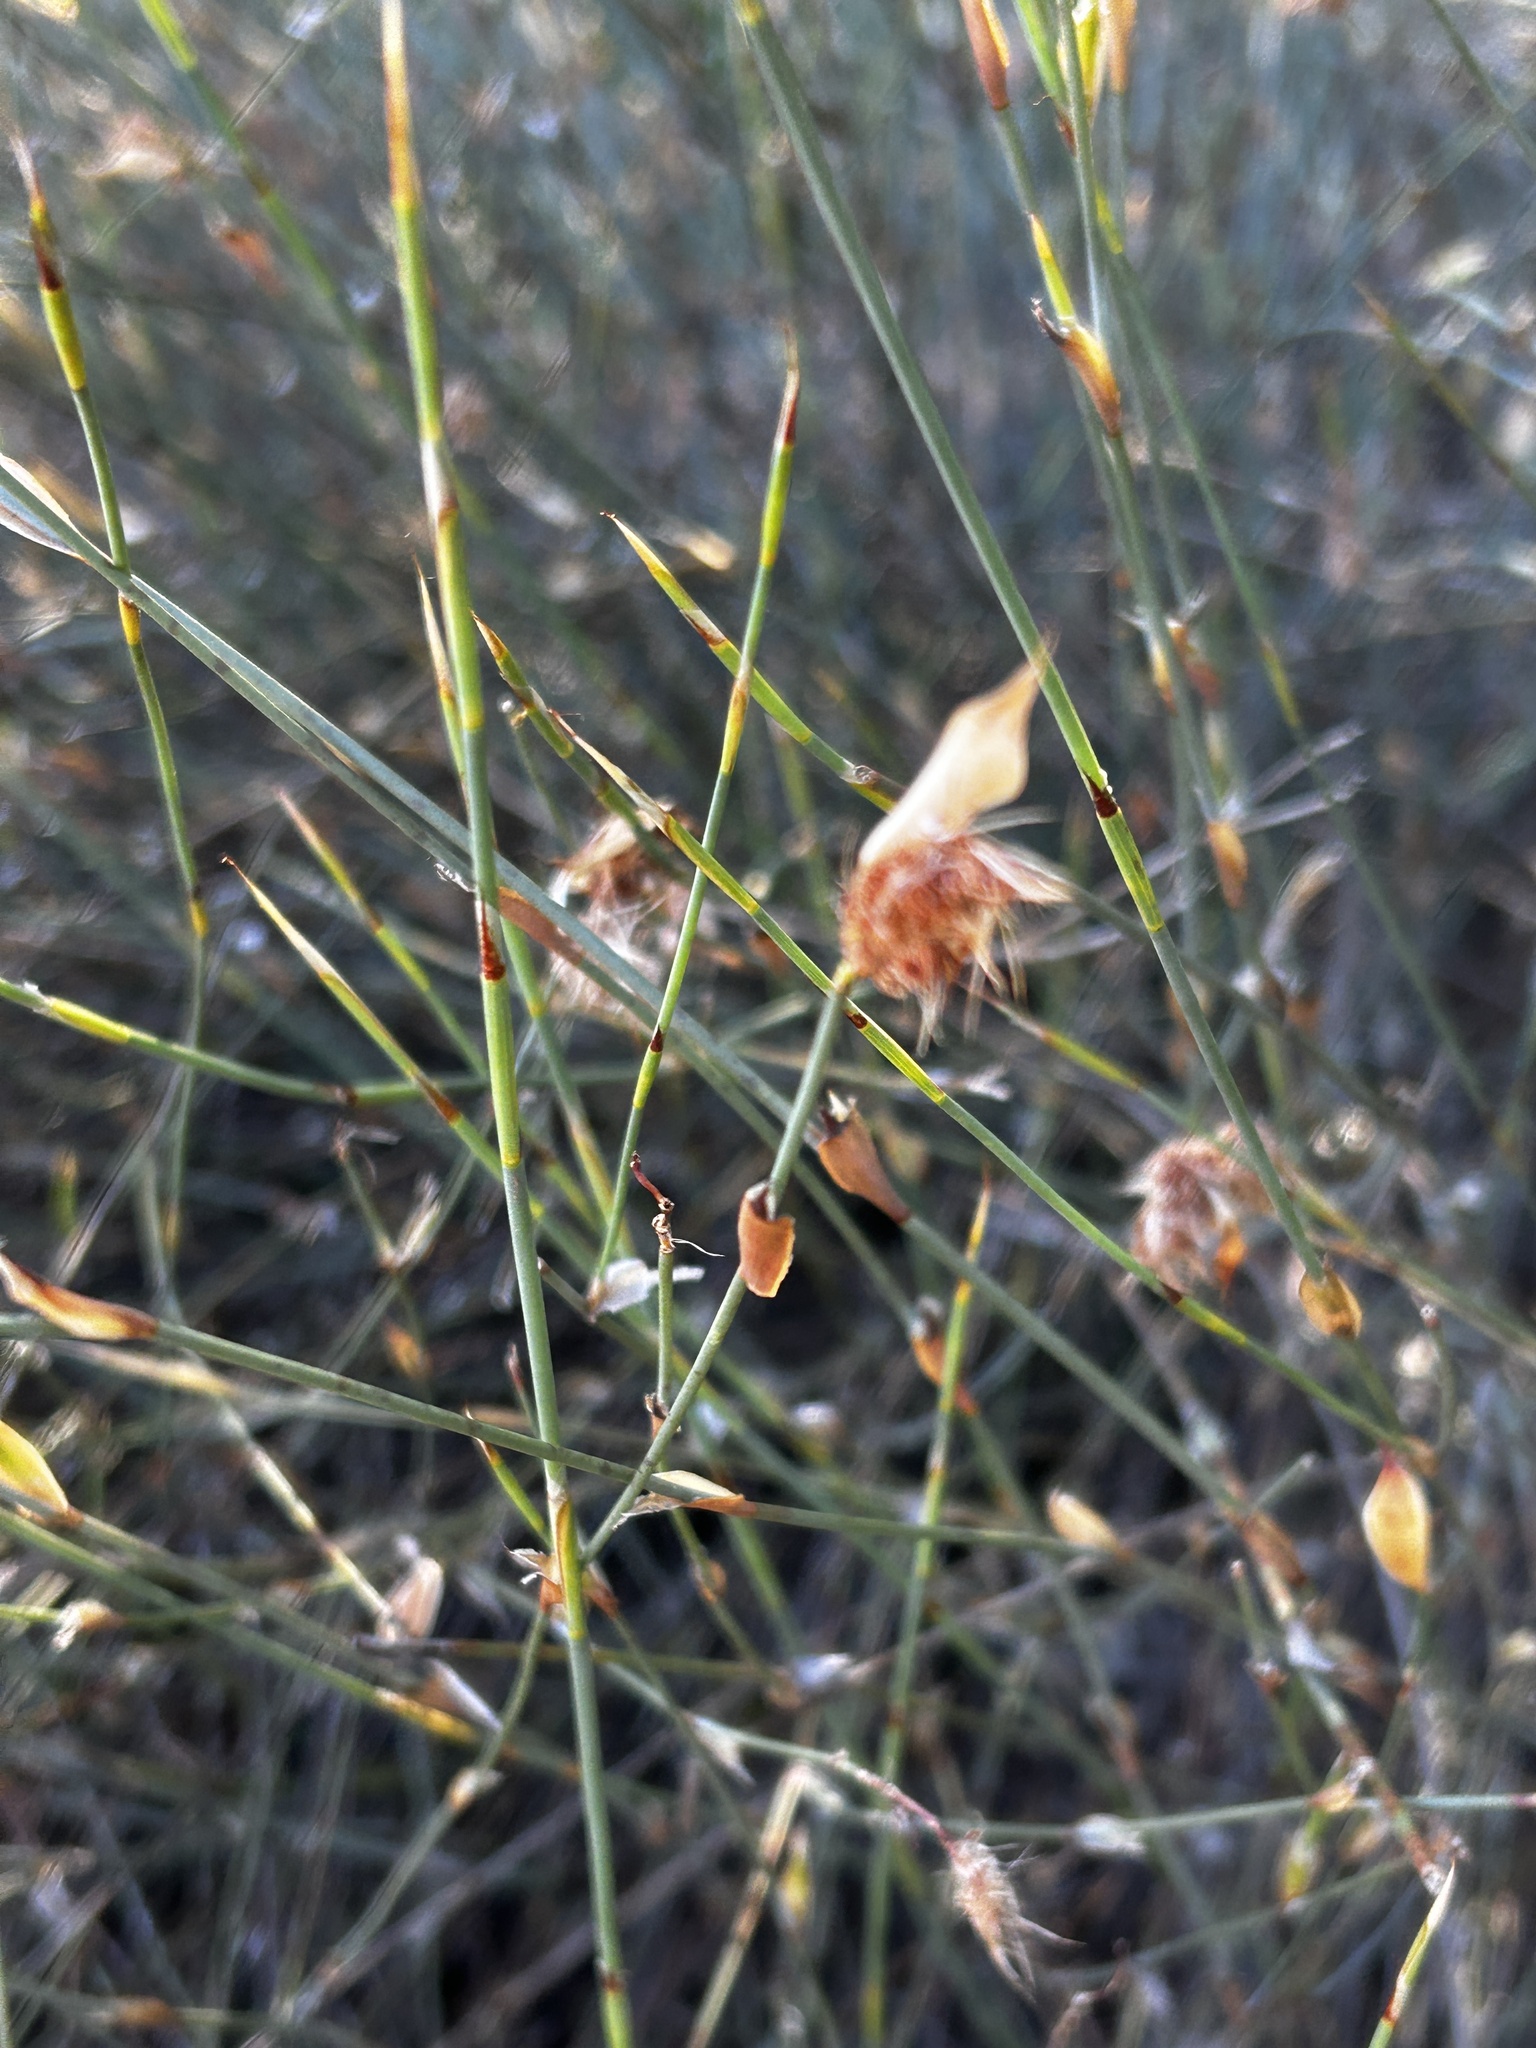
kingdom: Plantae
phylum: Tracheophyta
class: Liliopsida
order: Poales
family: Restionaceae
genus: Willdenowia
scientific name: Willdenowia incurvata
